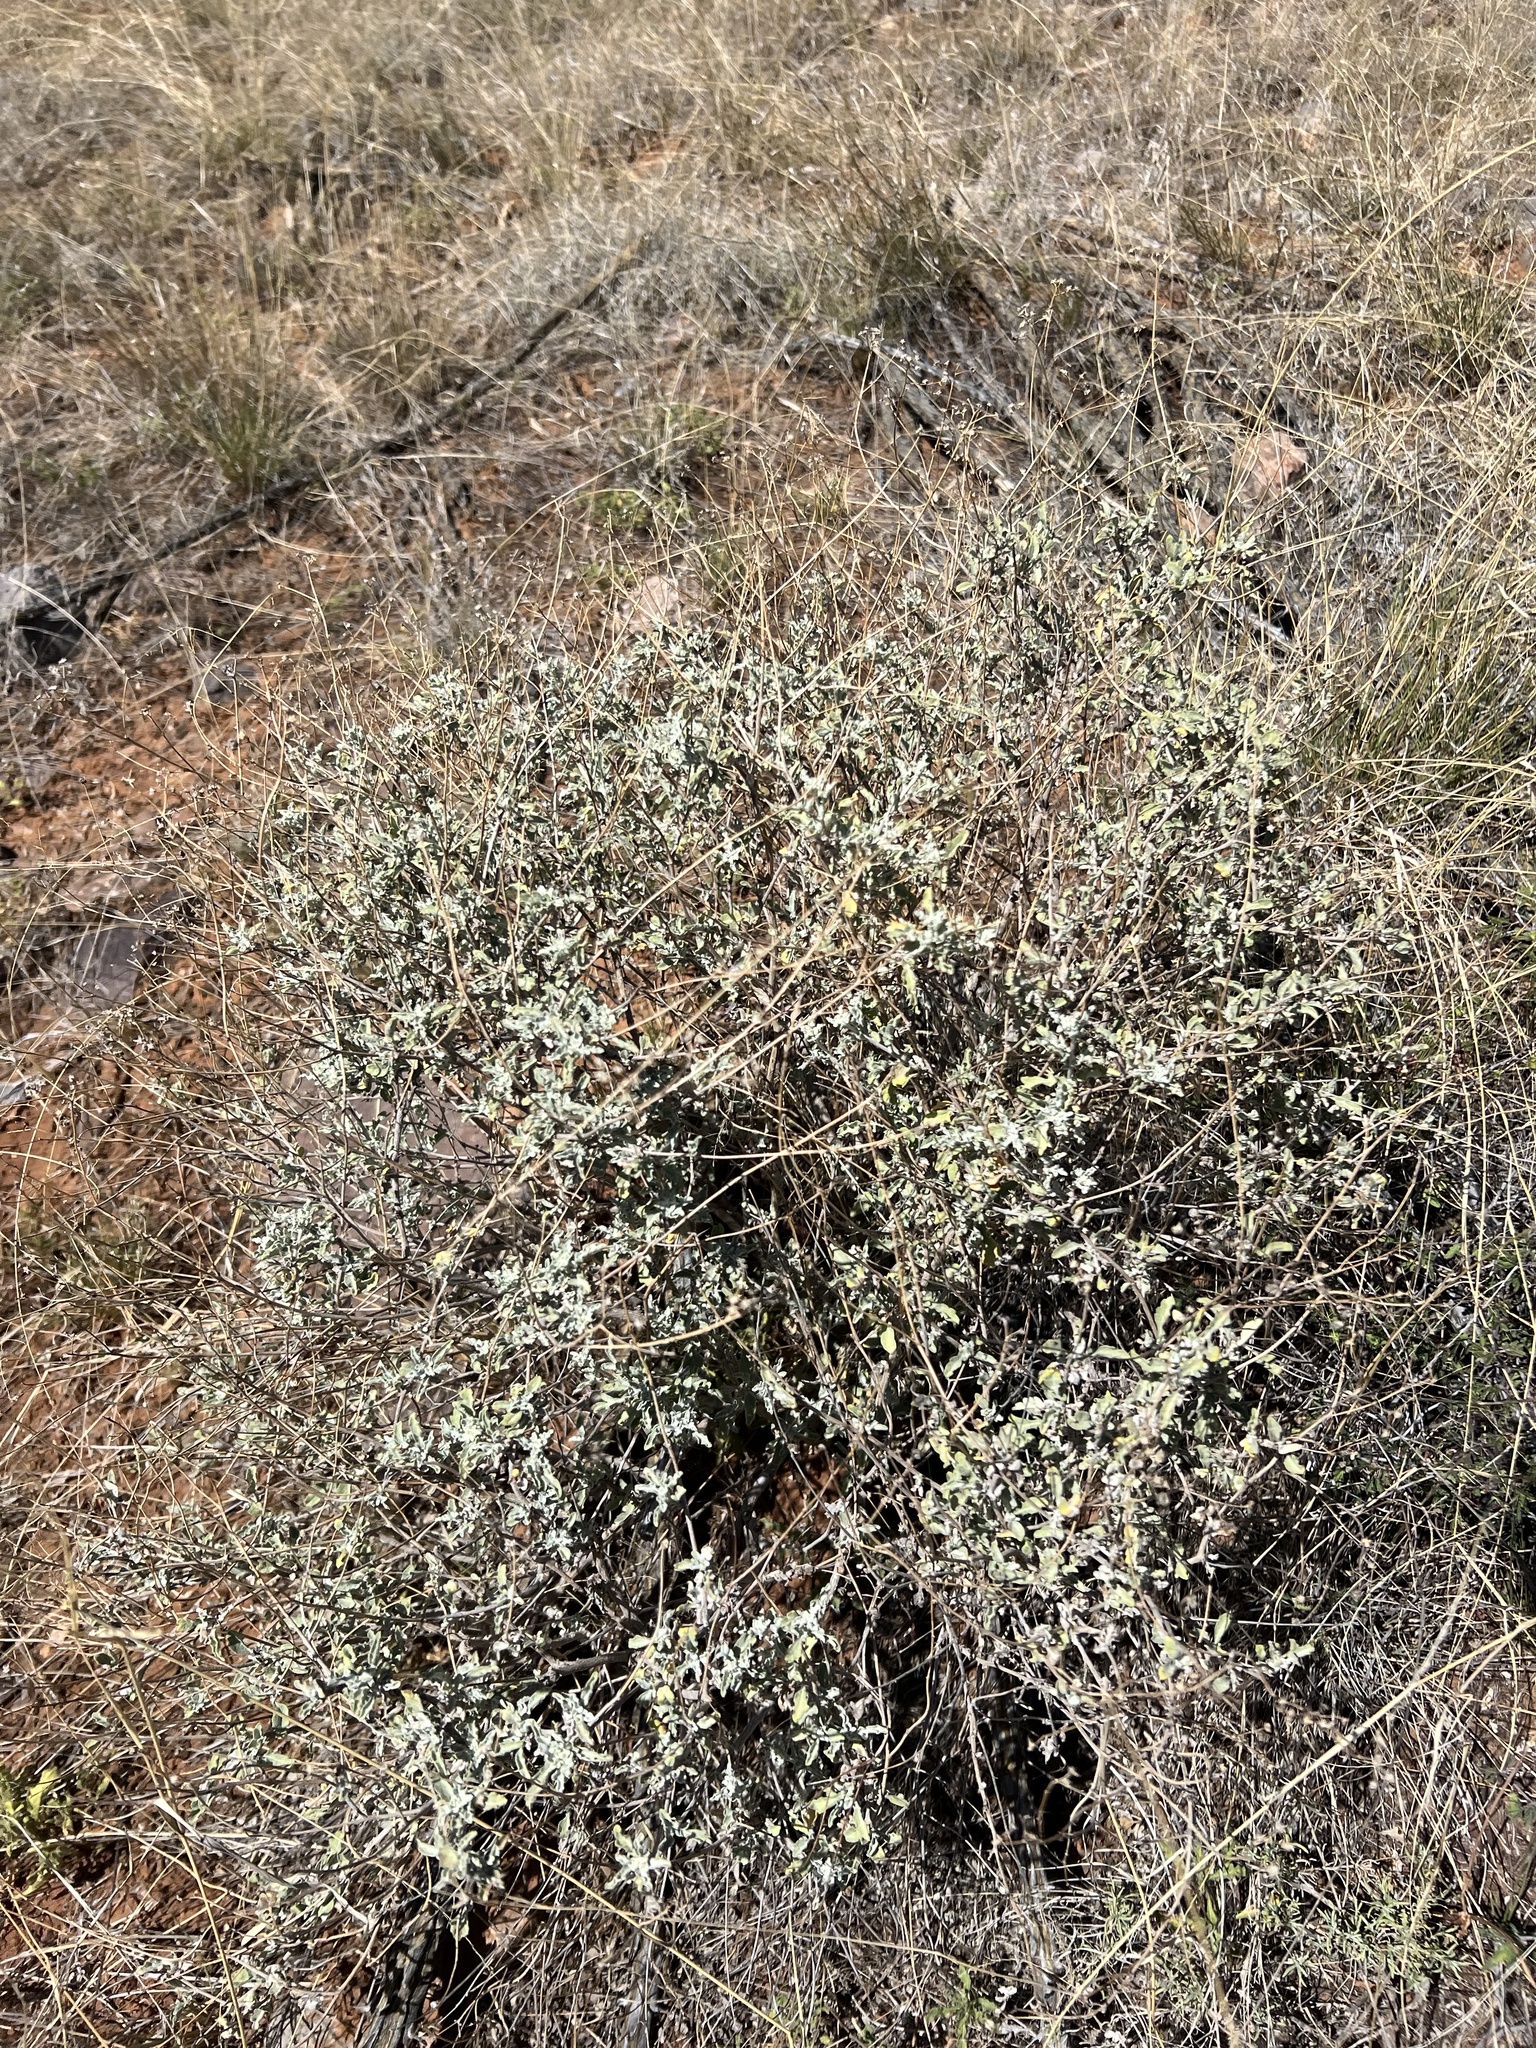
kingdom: Plantae
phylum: Tracheophyta
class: Magnoliopsida
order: Asterales
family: Asteraceae
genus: Parthenium
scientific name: Parthenium incanum
